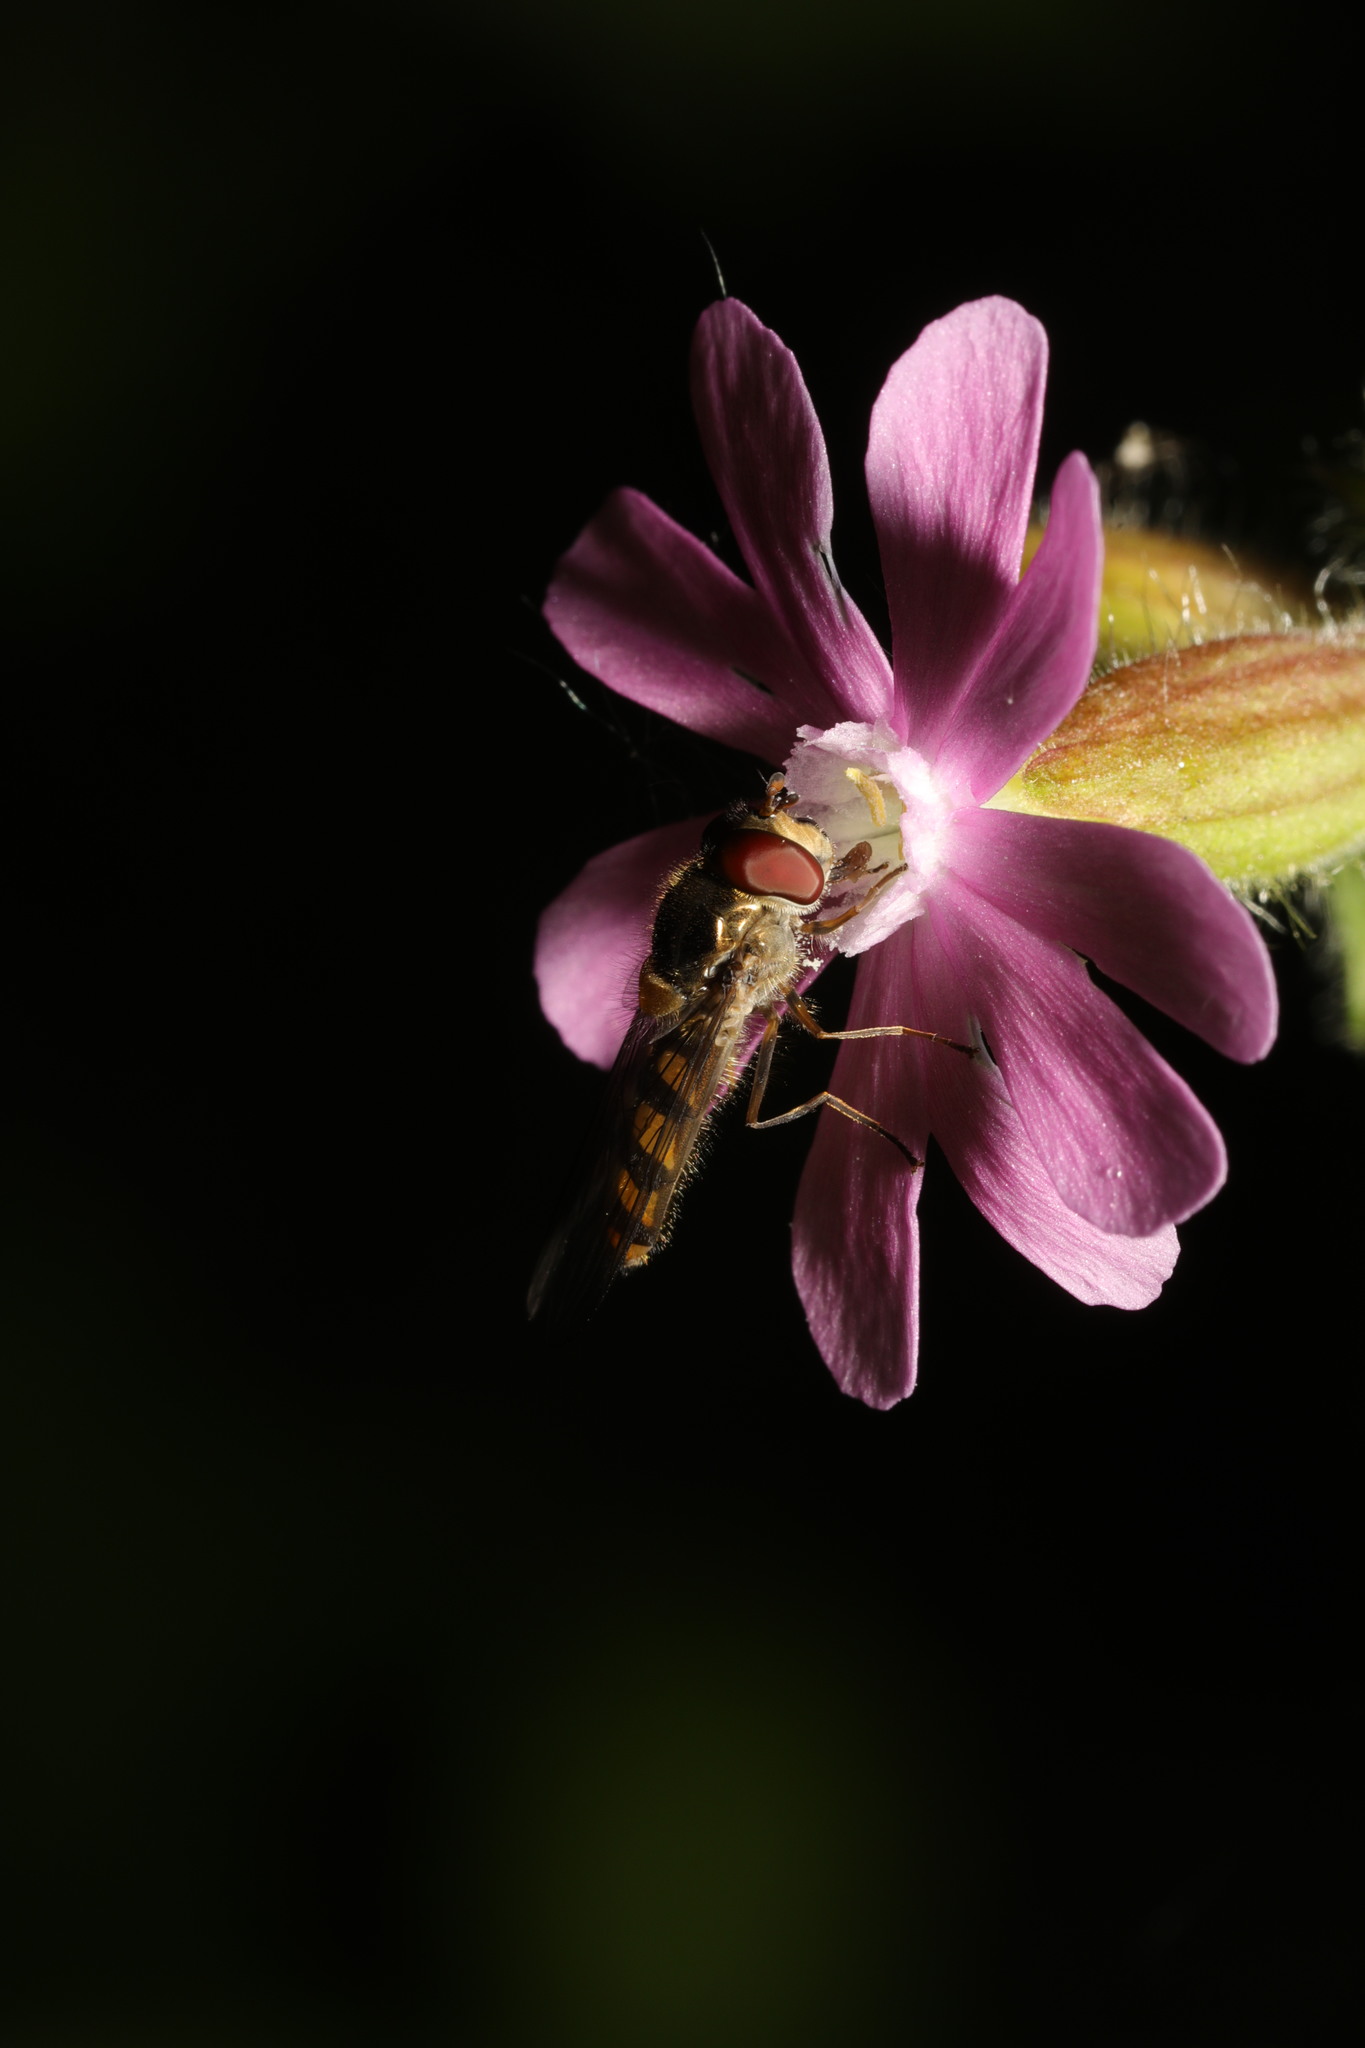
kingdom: Animalia
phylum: Arthropoda
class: Insecta
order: Diptera
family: Syrphidae
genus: Episyrphus
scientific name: Episyrphus balteatus
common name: Marmalade hoverfly
